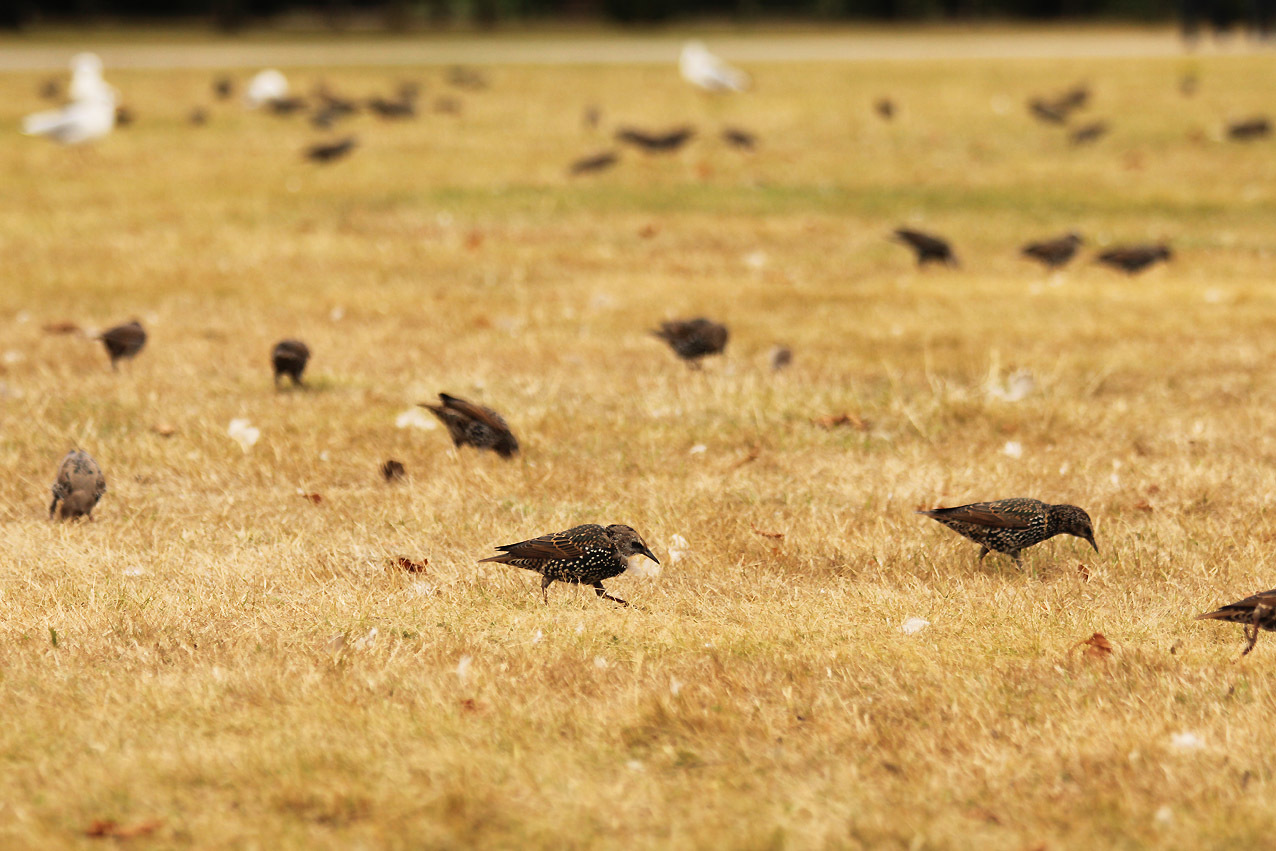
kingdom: Animalia
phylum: Chordata
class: Aves
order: Passeriformes
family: Sturnidae
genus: Sturnus
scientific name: Sturnus vulgaris
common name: Common starling
